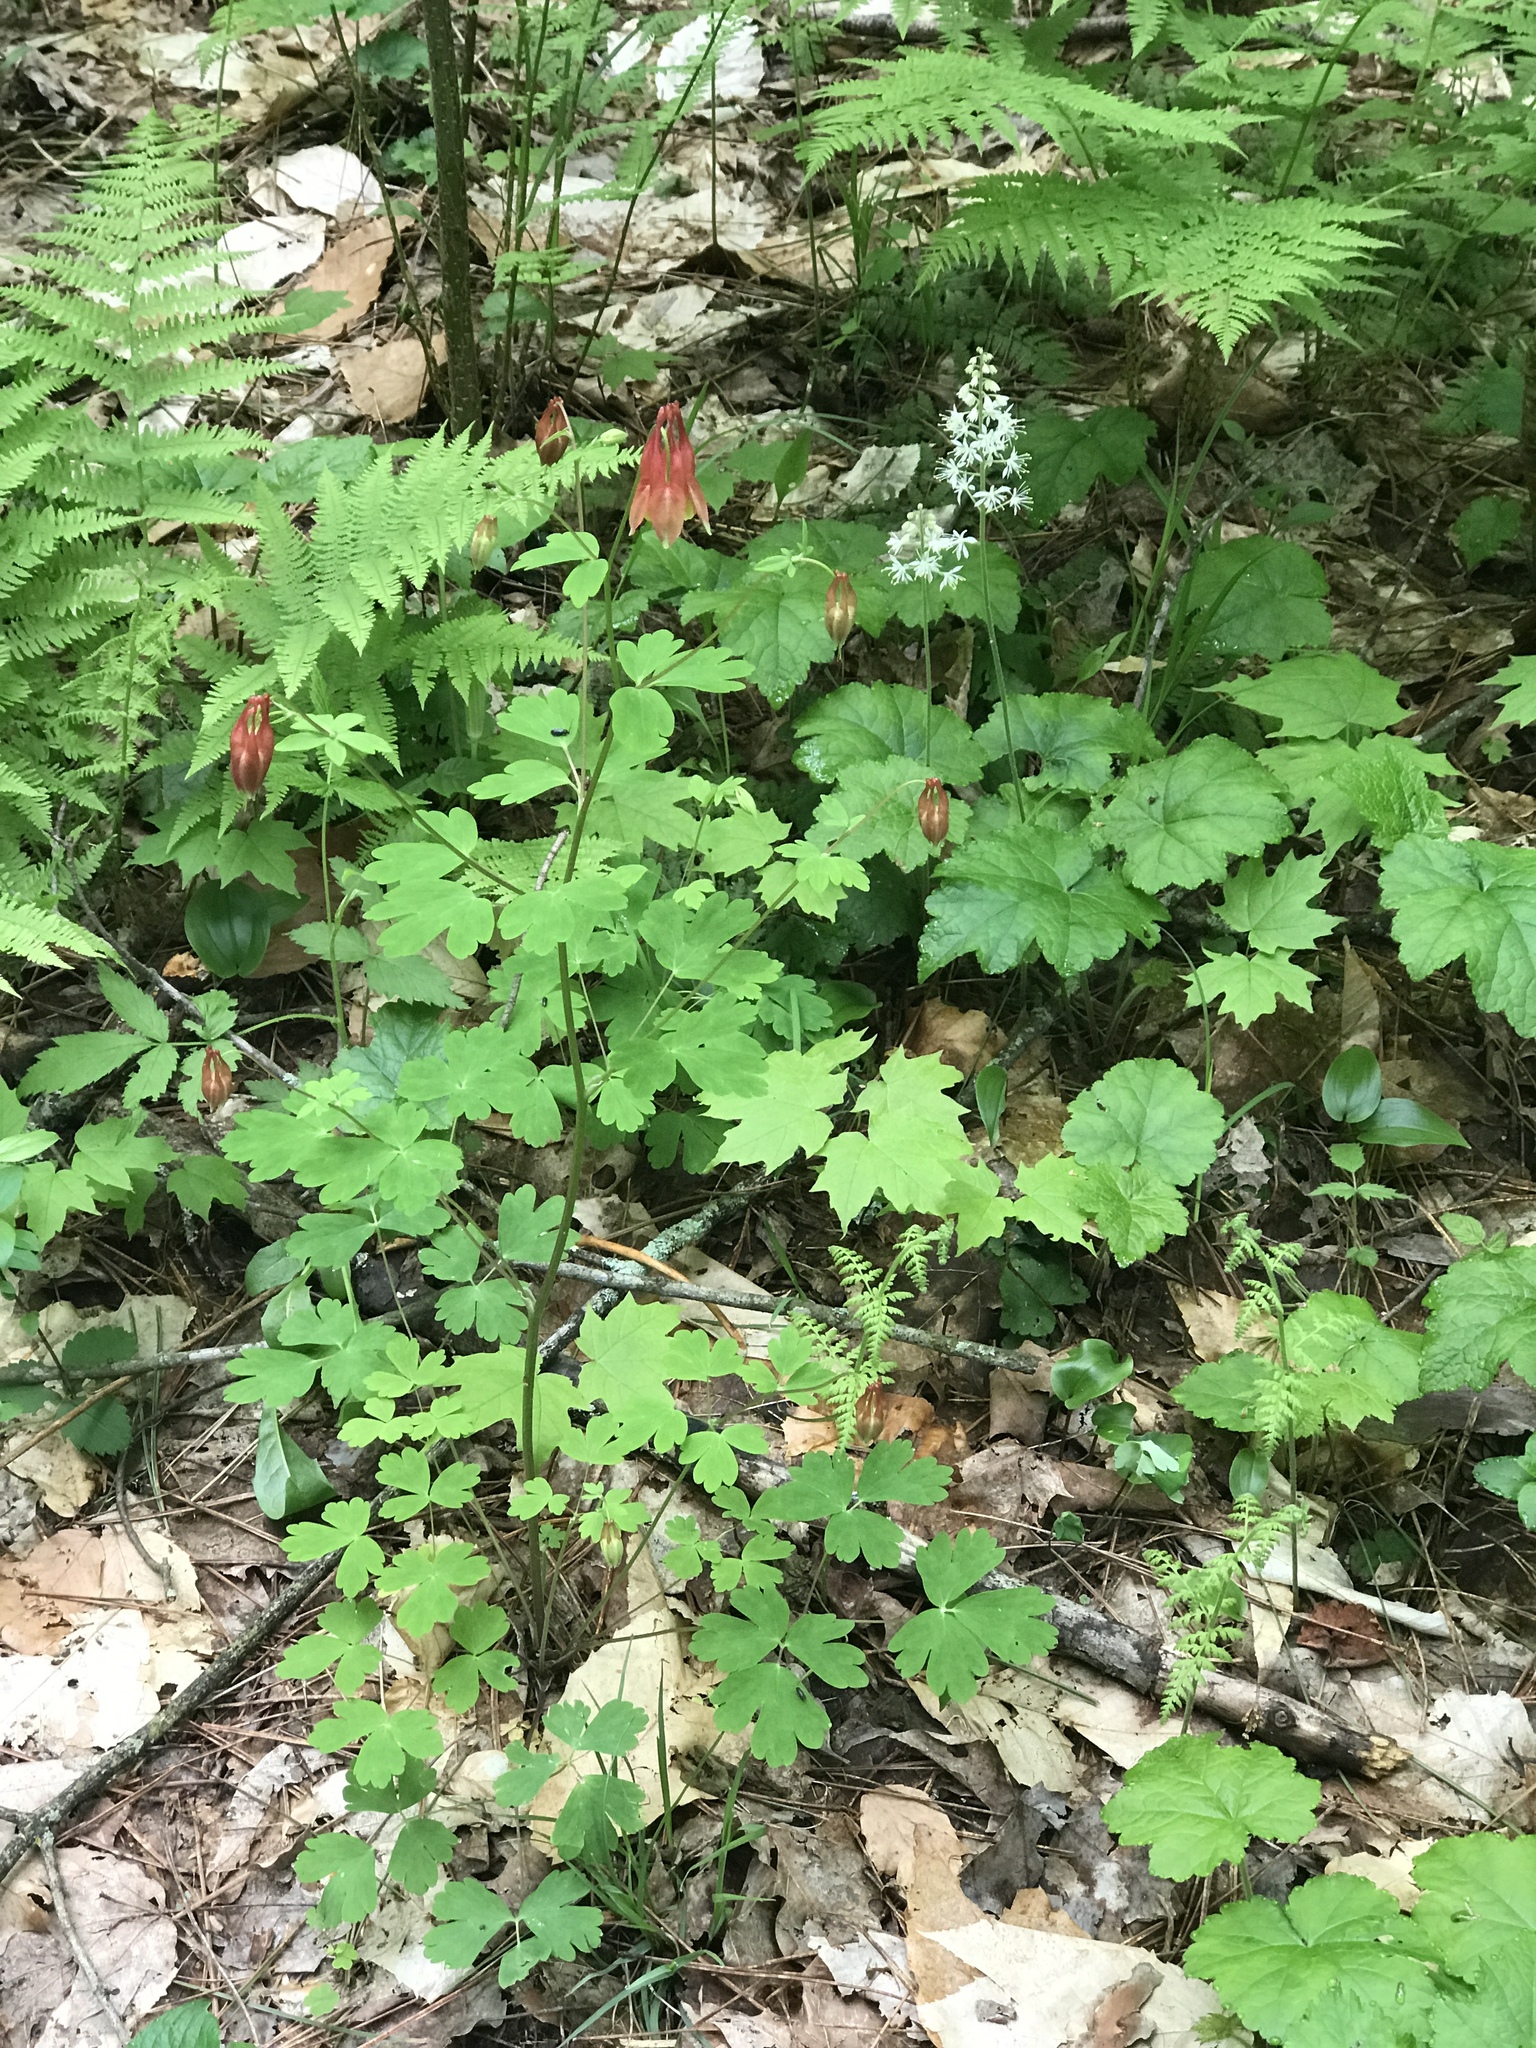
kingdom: Plantae
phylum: Tracheophyta
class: Magnoliopsida
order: Ranunculales
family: Ranunculaceae
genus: Aquilegia
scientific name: Aquilegia canadensis
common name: American columbine
